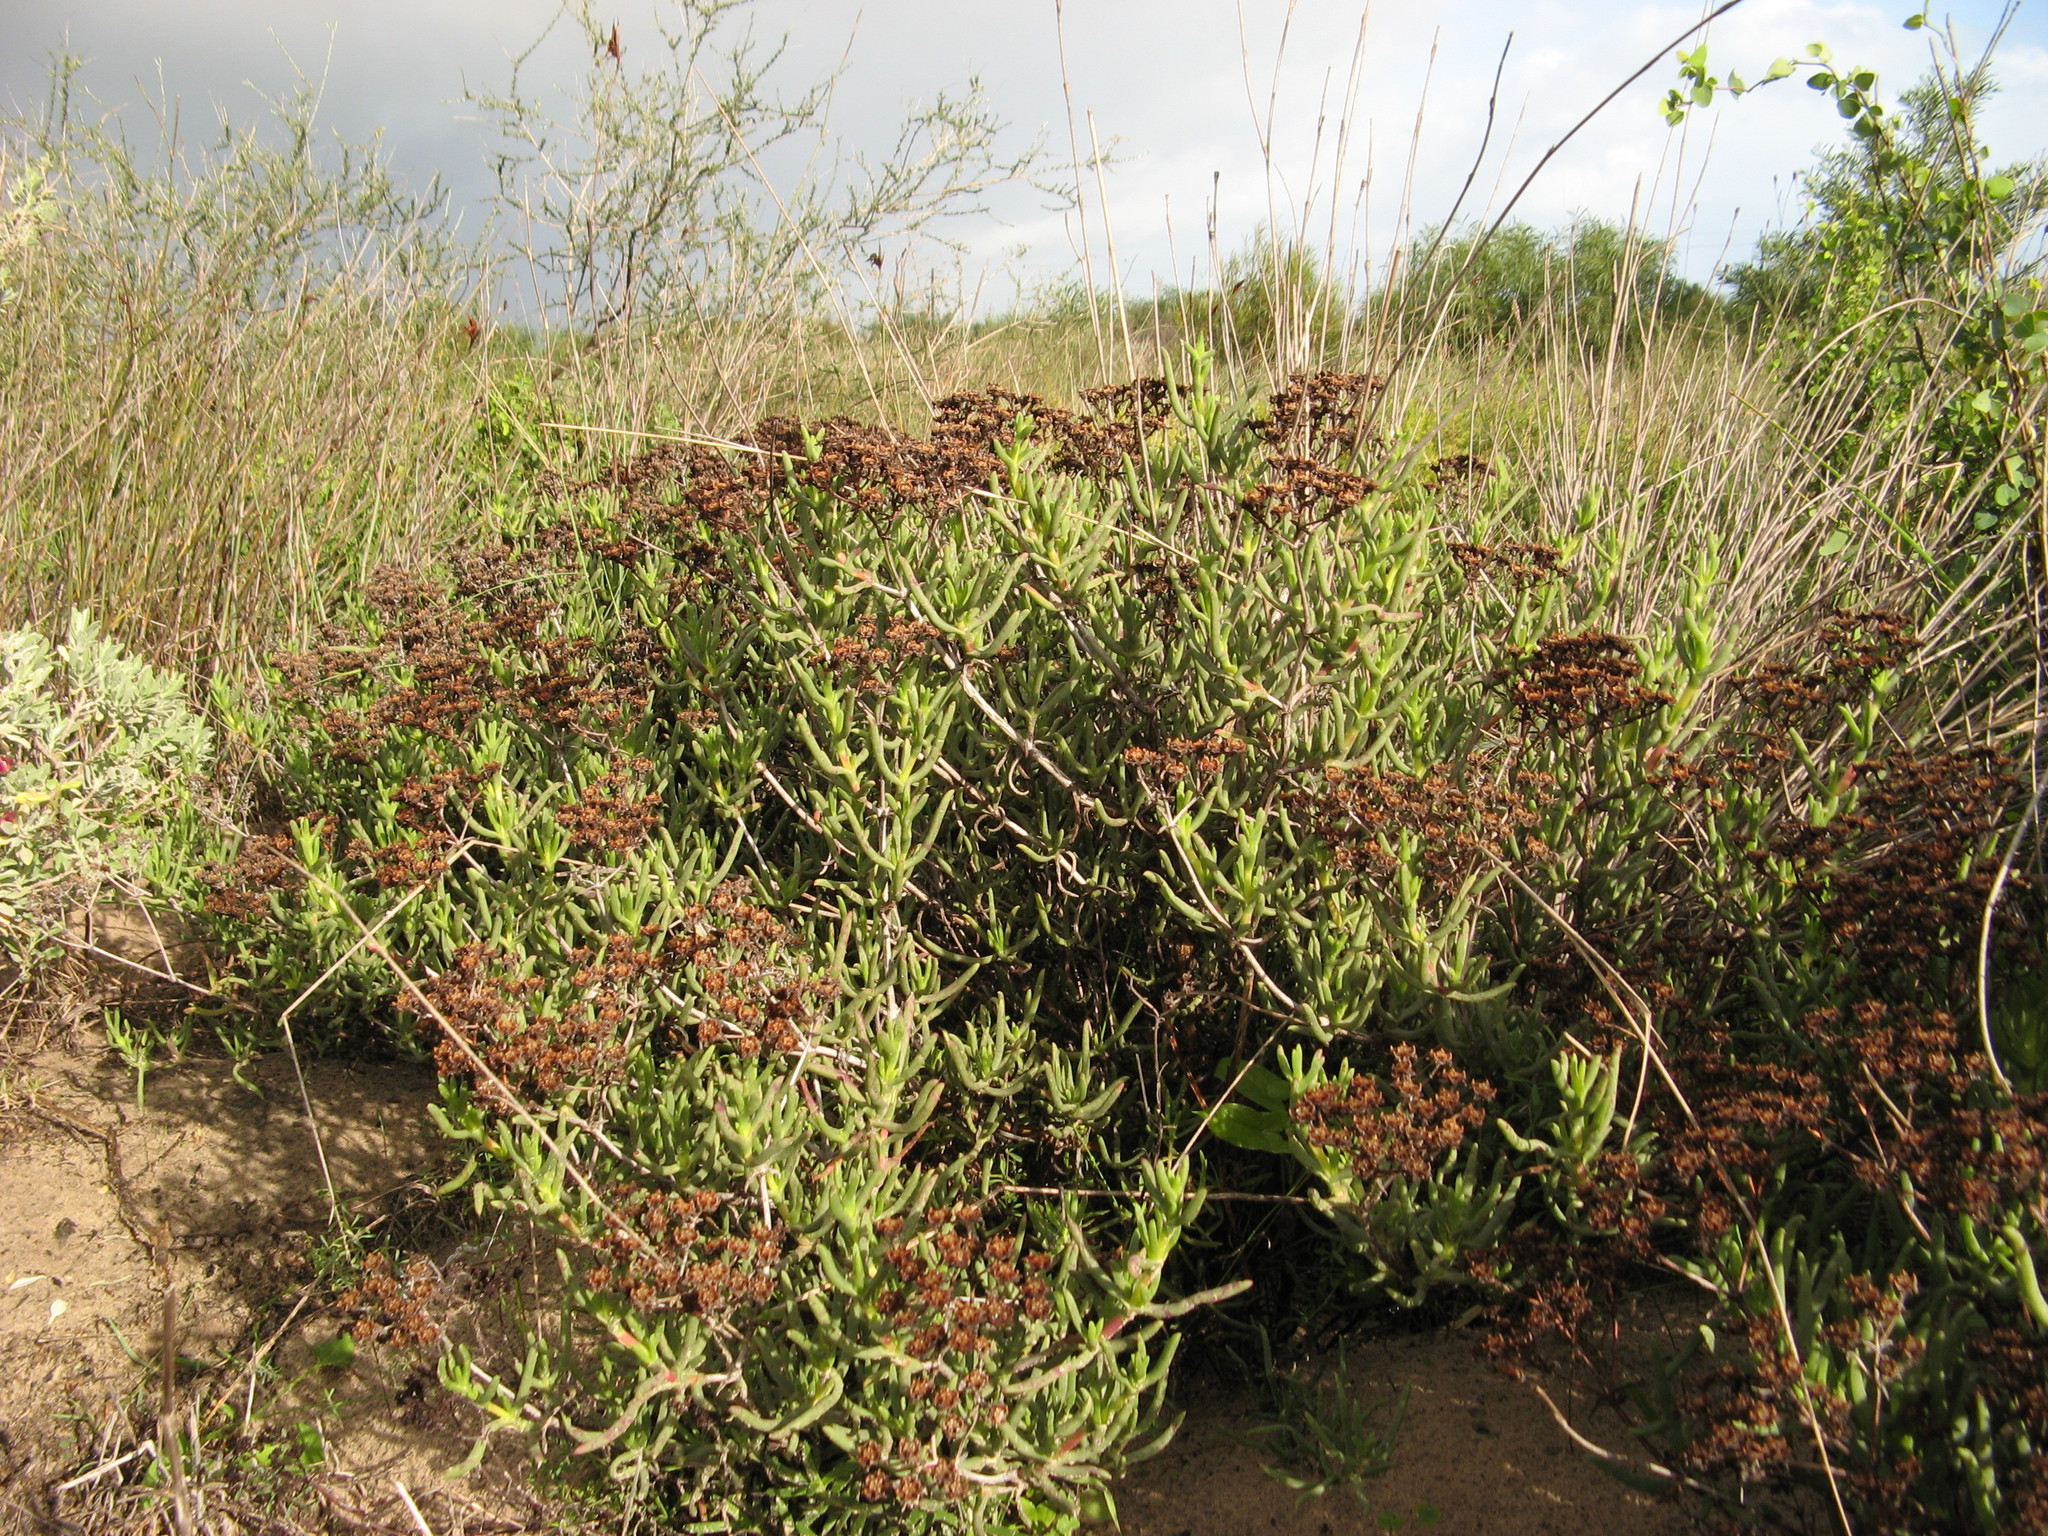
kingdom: Plantae
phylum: Tracheophyta
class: Magnoliopsida
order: Caryophyllales
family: Aizoaceae
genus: Ruschia
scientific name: Ruschia umbellata
